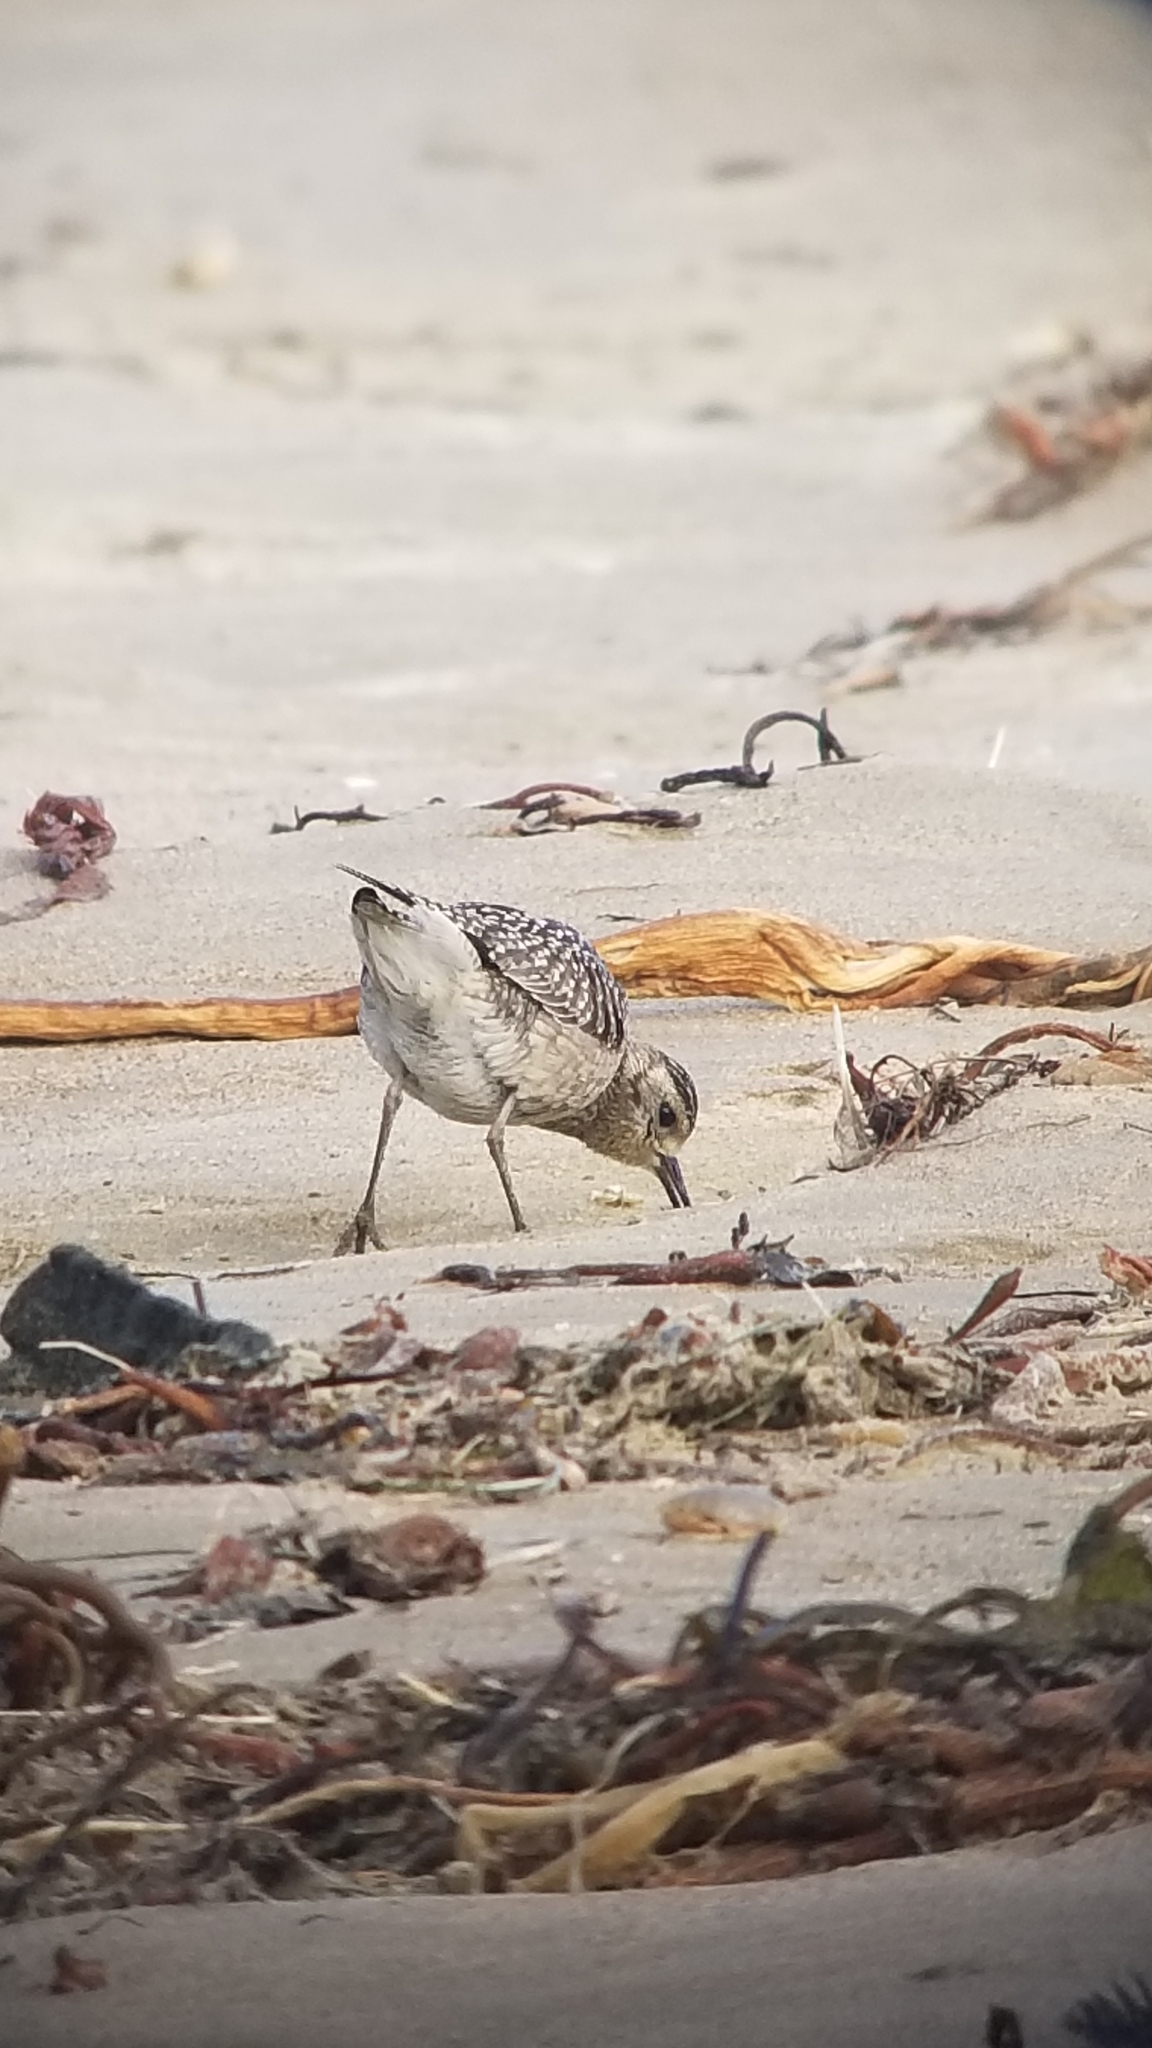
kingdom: Animalia
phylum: Chordata
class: Aves
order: Charadriiformes
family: Charadriidae
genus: Pluvialis
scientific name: Pluvialis fulva
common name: Pacific golden plover
